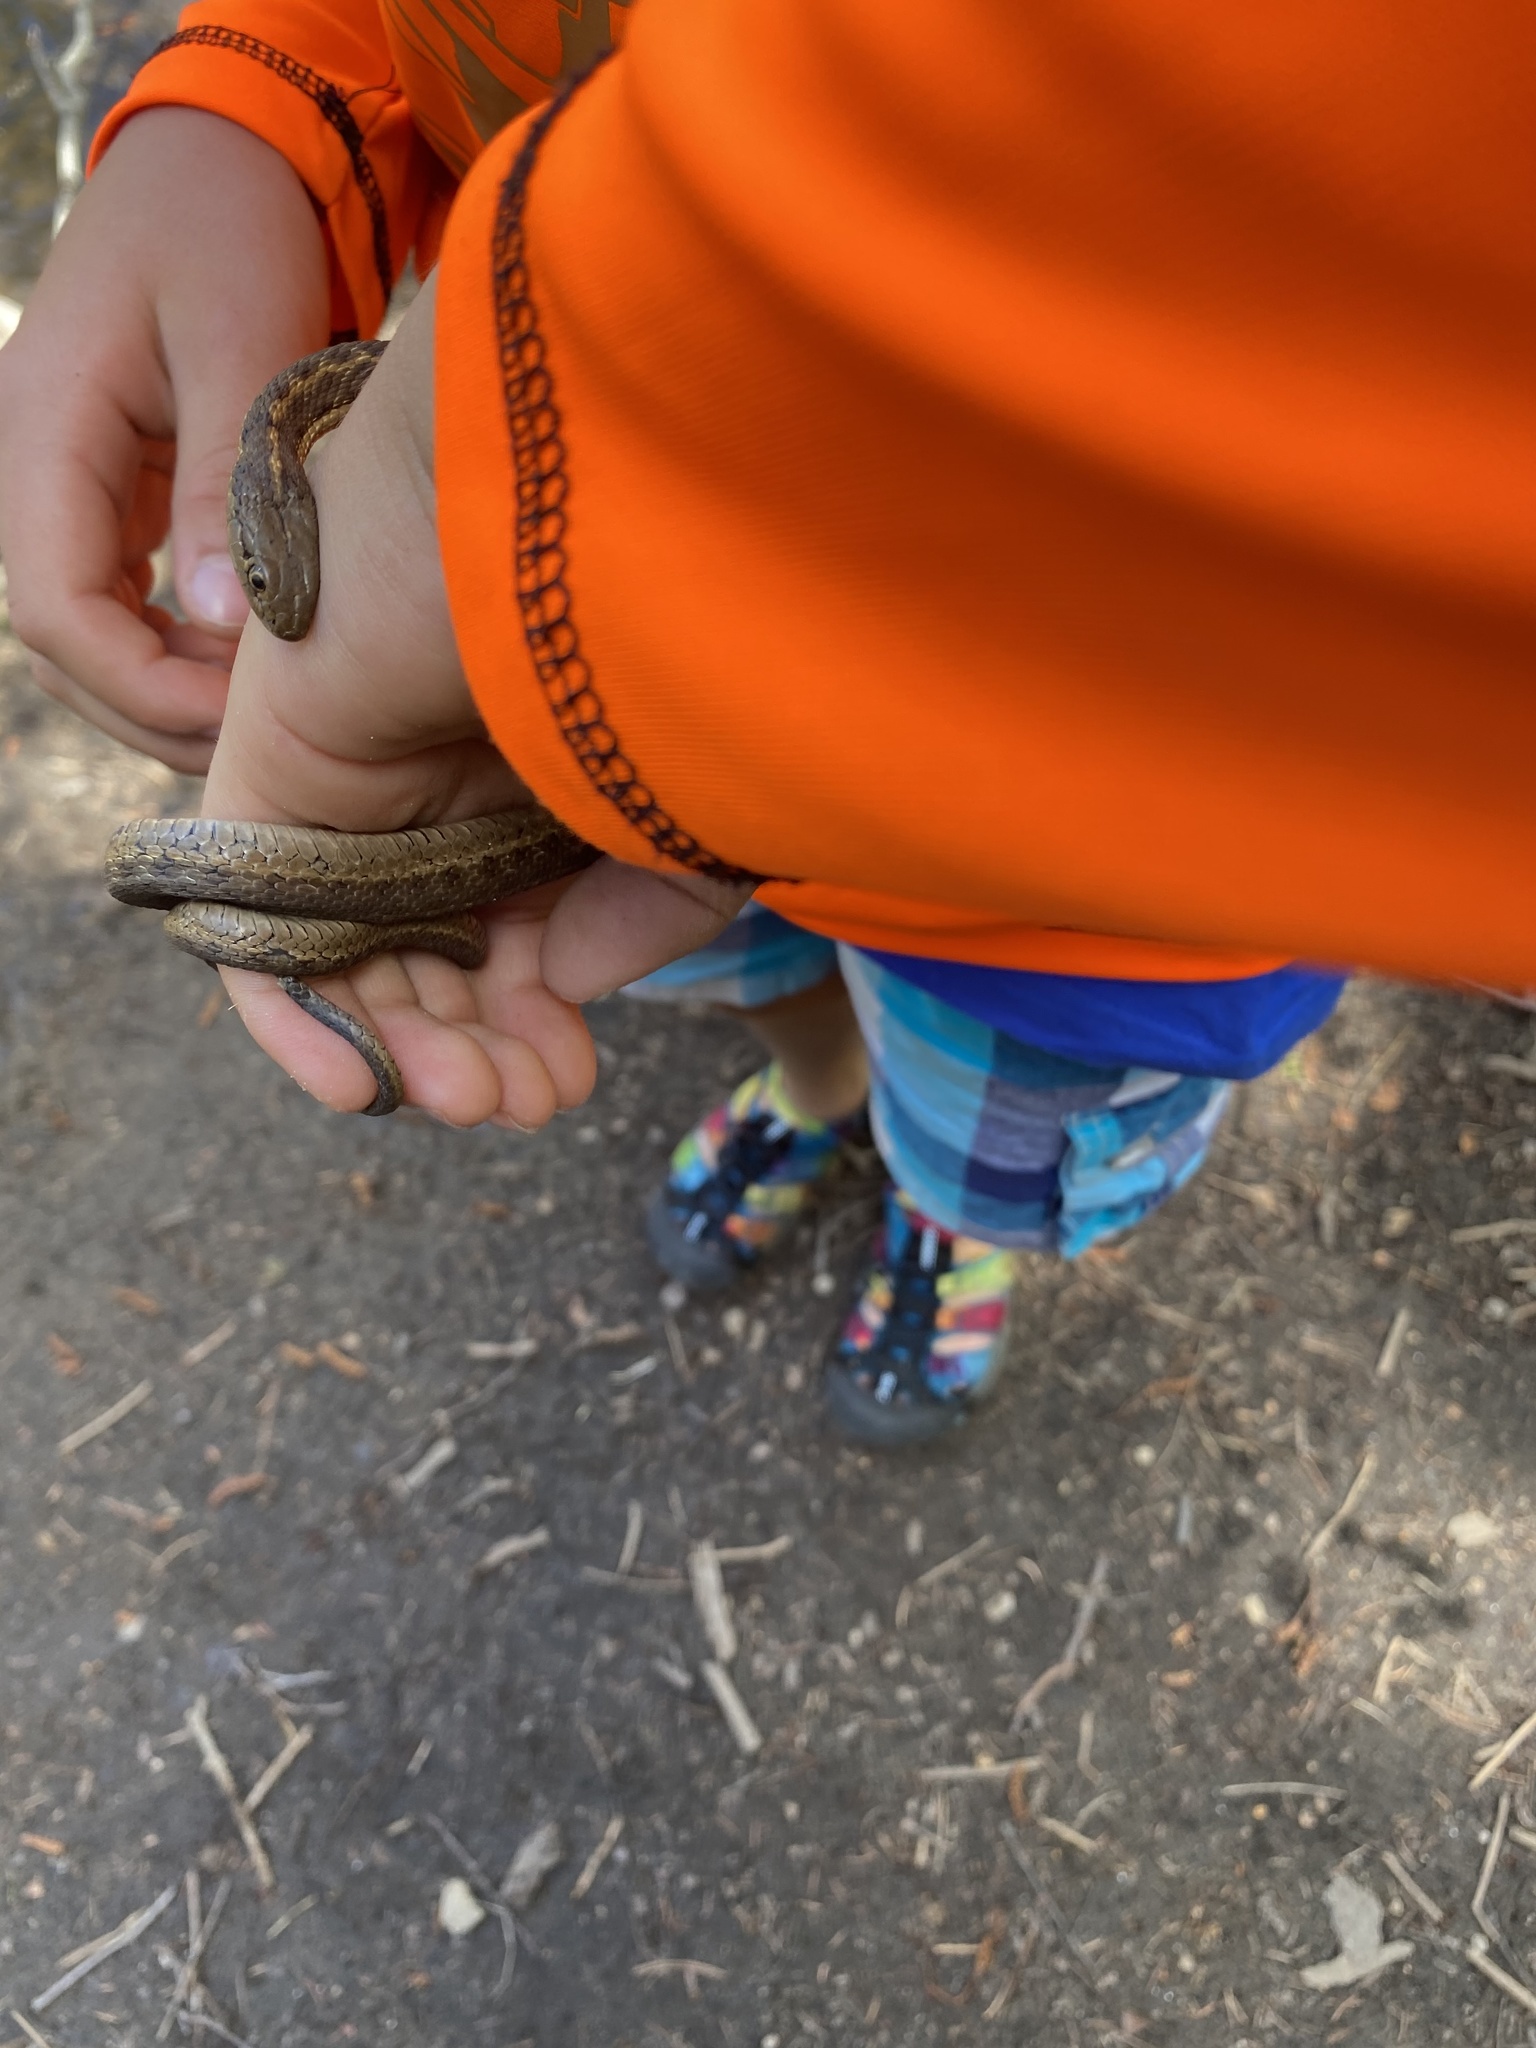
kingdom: Animalia
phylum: Chordata
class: Squamata
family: Colubridae
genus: Thamnophis
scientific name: Thamnophis elegans
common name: Western terrestrial garter snake
